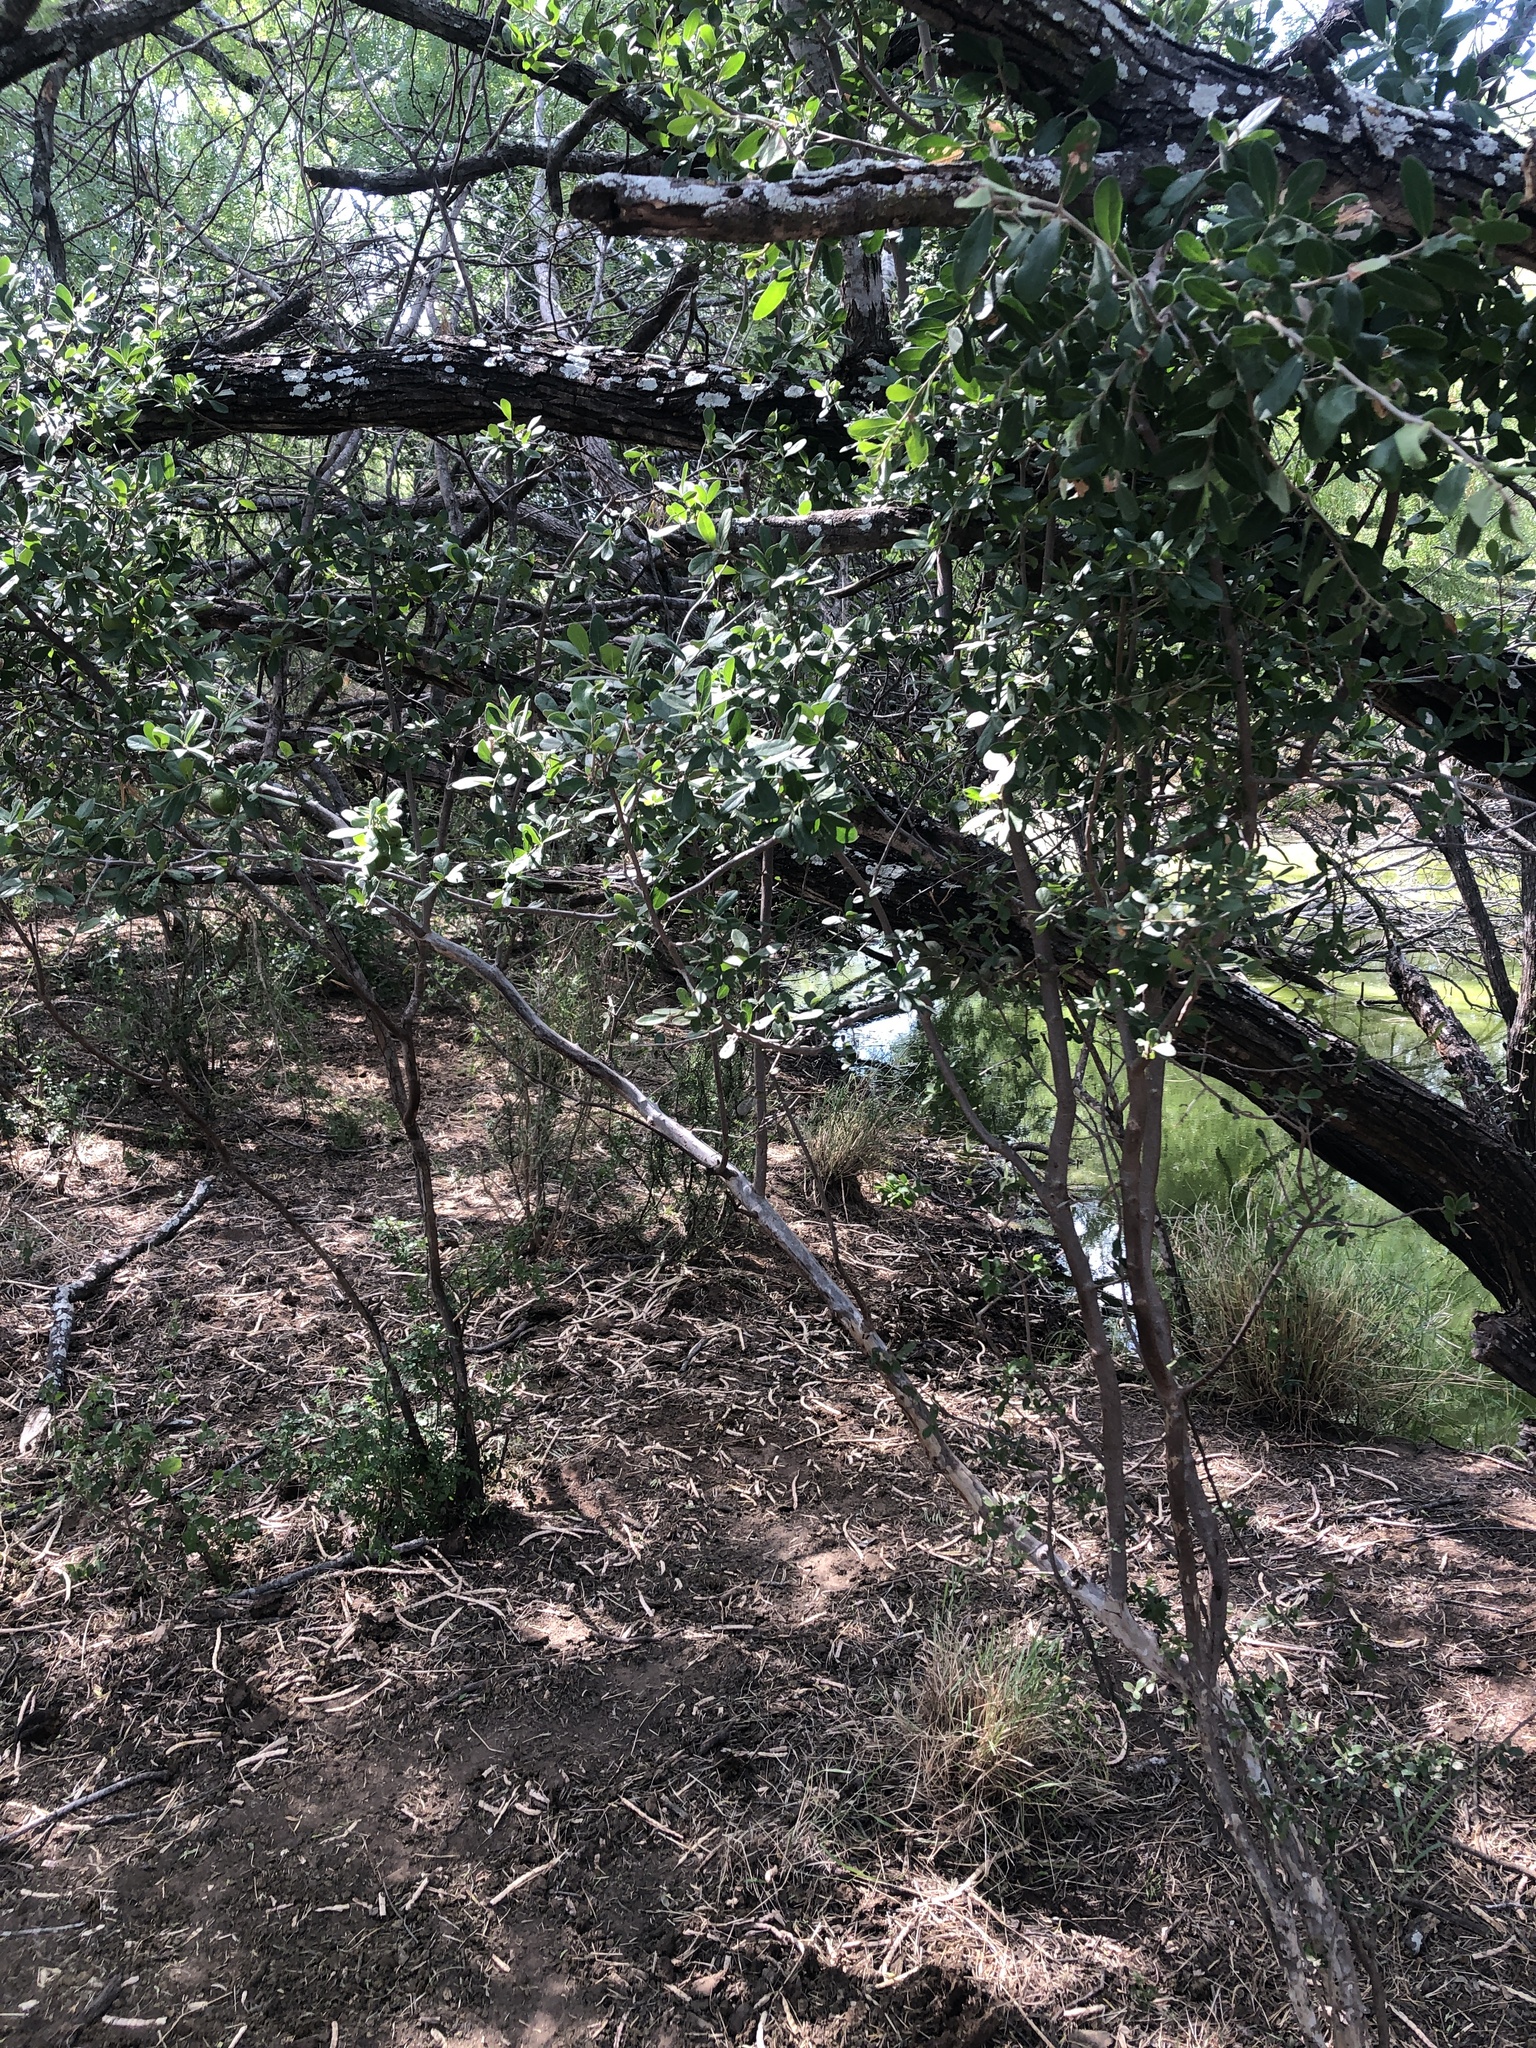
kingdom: Plantae
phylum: Tracheophyta
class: Magnoliopsida
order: Ericales
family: Ebenaceae
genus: Diospyros
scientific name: Diospyros texana
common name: Texas persimmon
